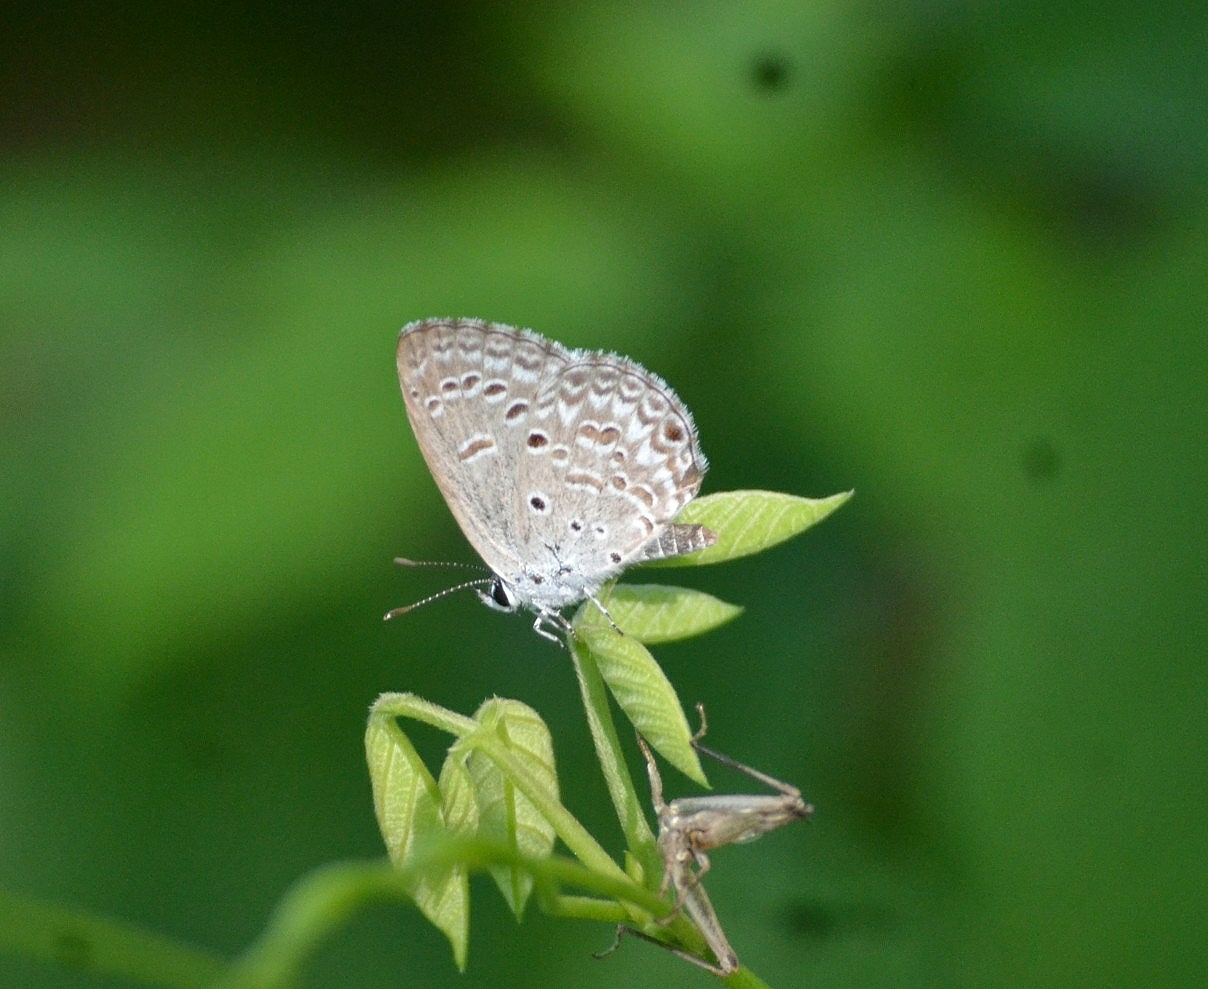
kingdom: Animalia
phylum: Arthropoda
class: Insecta
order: Lepidoptera
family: Lycaenidae
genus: Chilades
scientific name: Chilades laius
